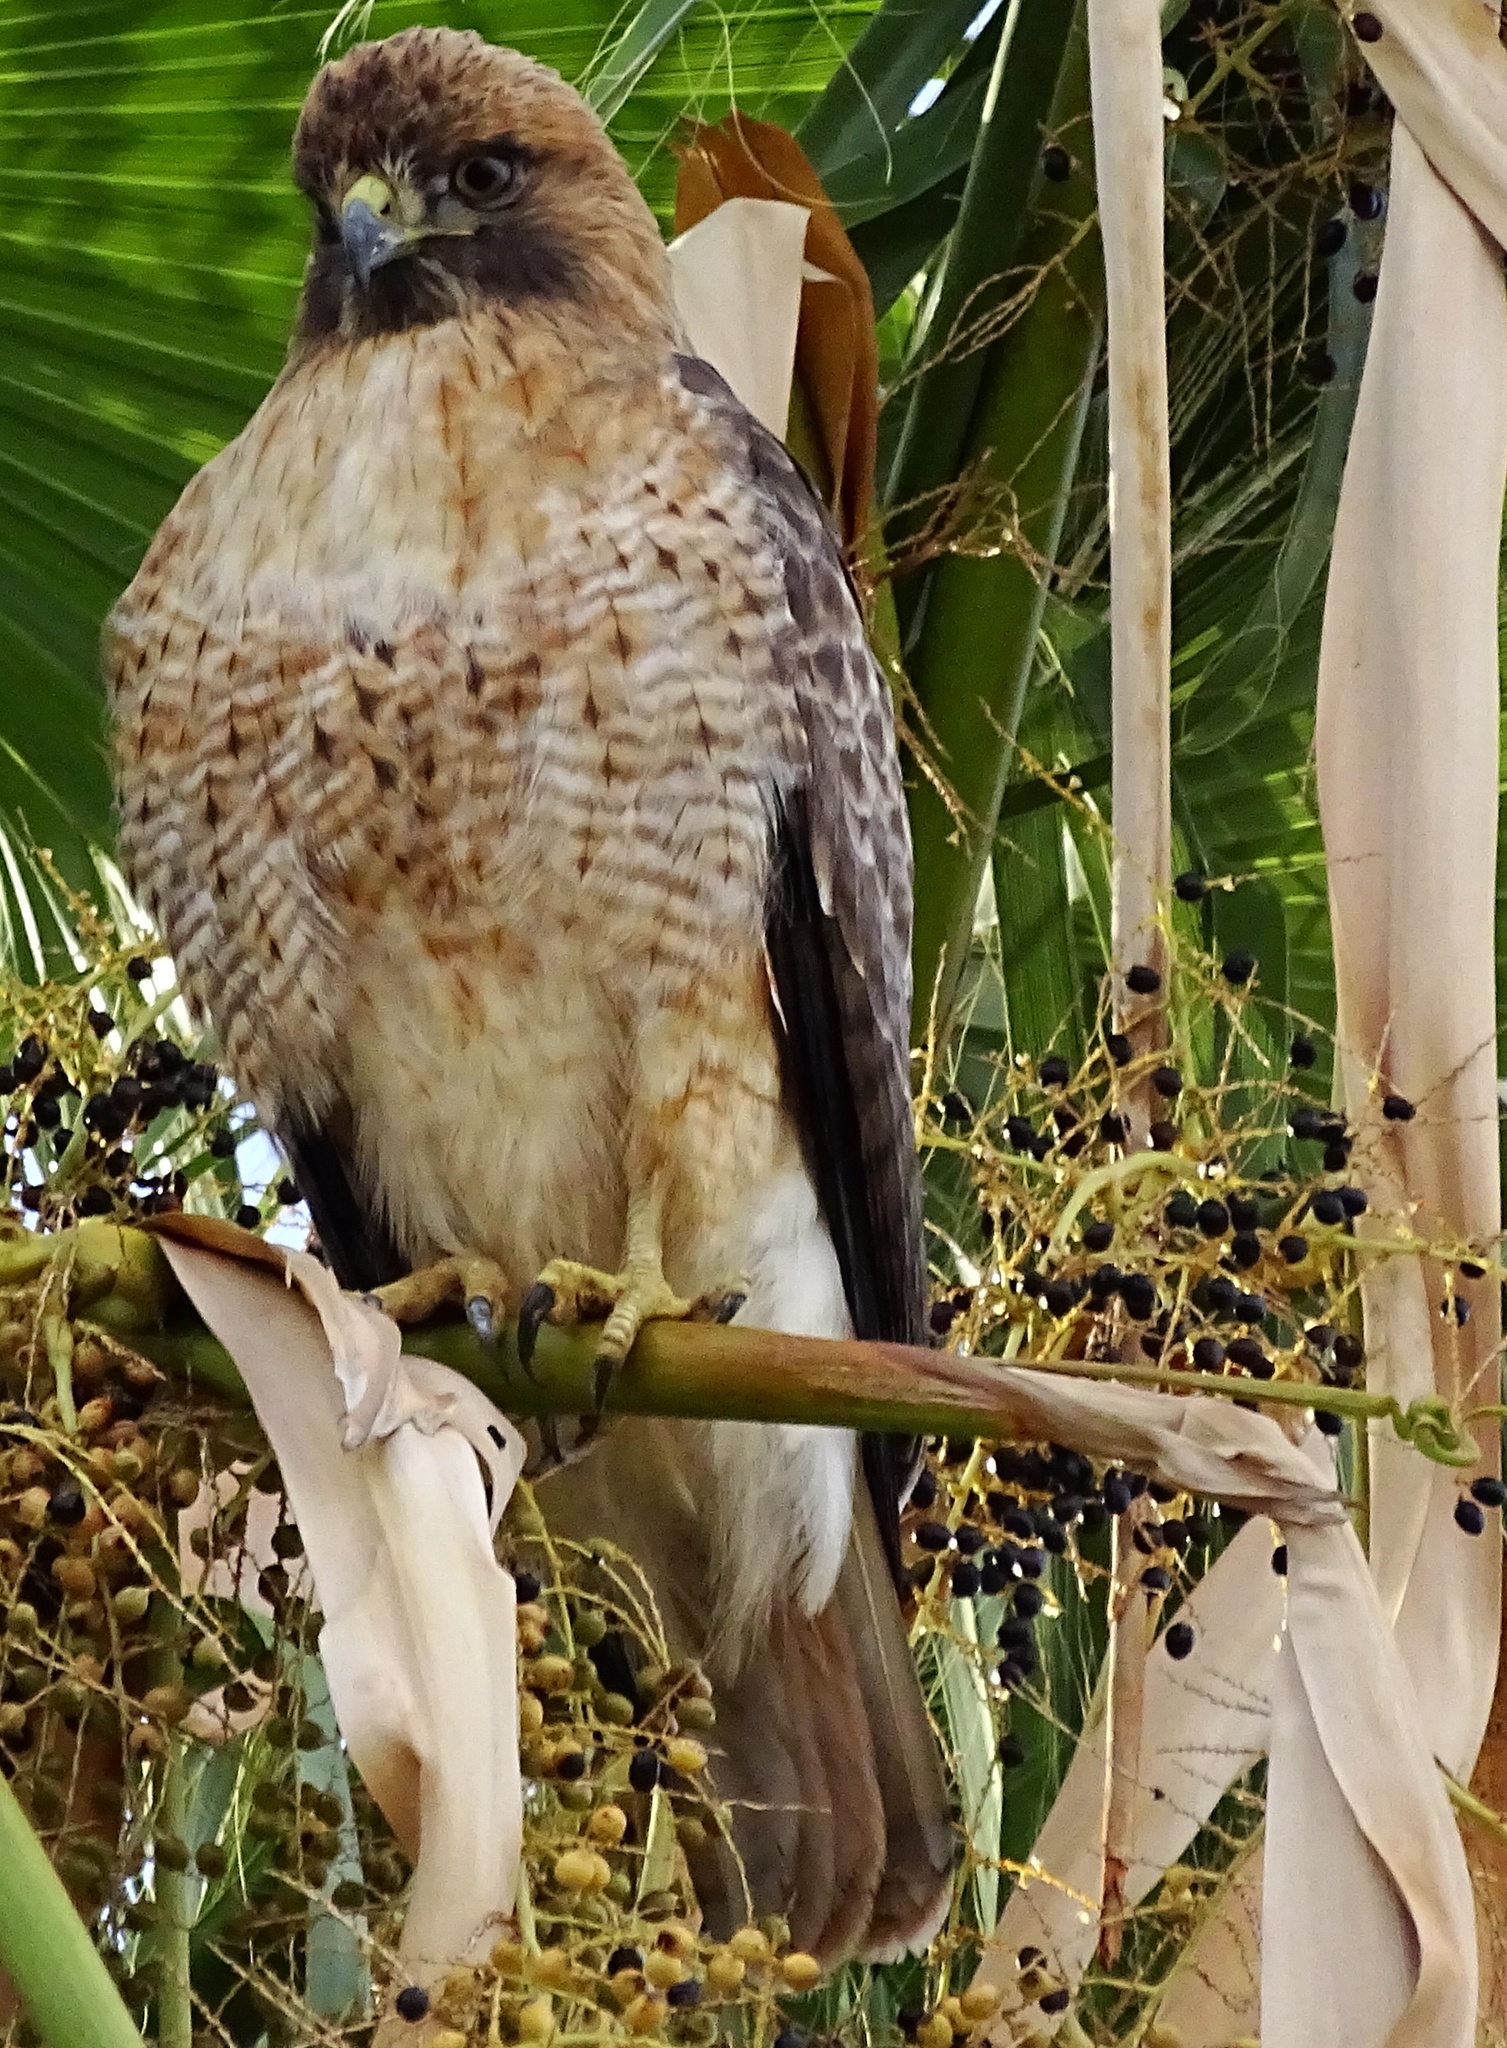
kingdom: Animalia
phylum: Chordata
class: Aves
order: Accipitriformes
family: Accipitridae
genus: Buteo
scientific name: Buteo jamaicensis
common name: Red-tailed hawk
